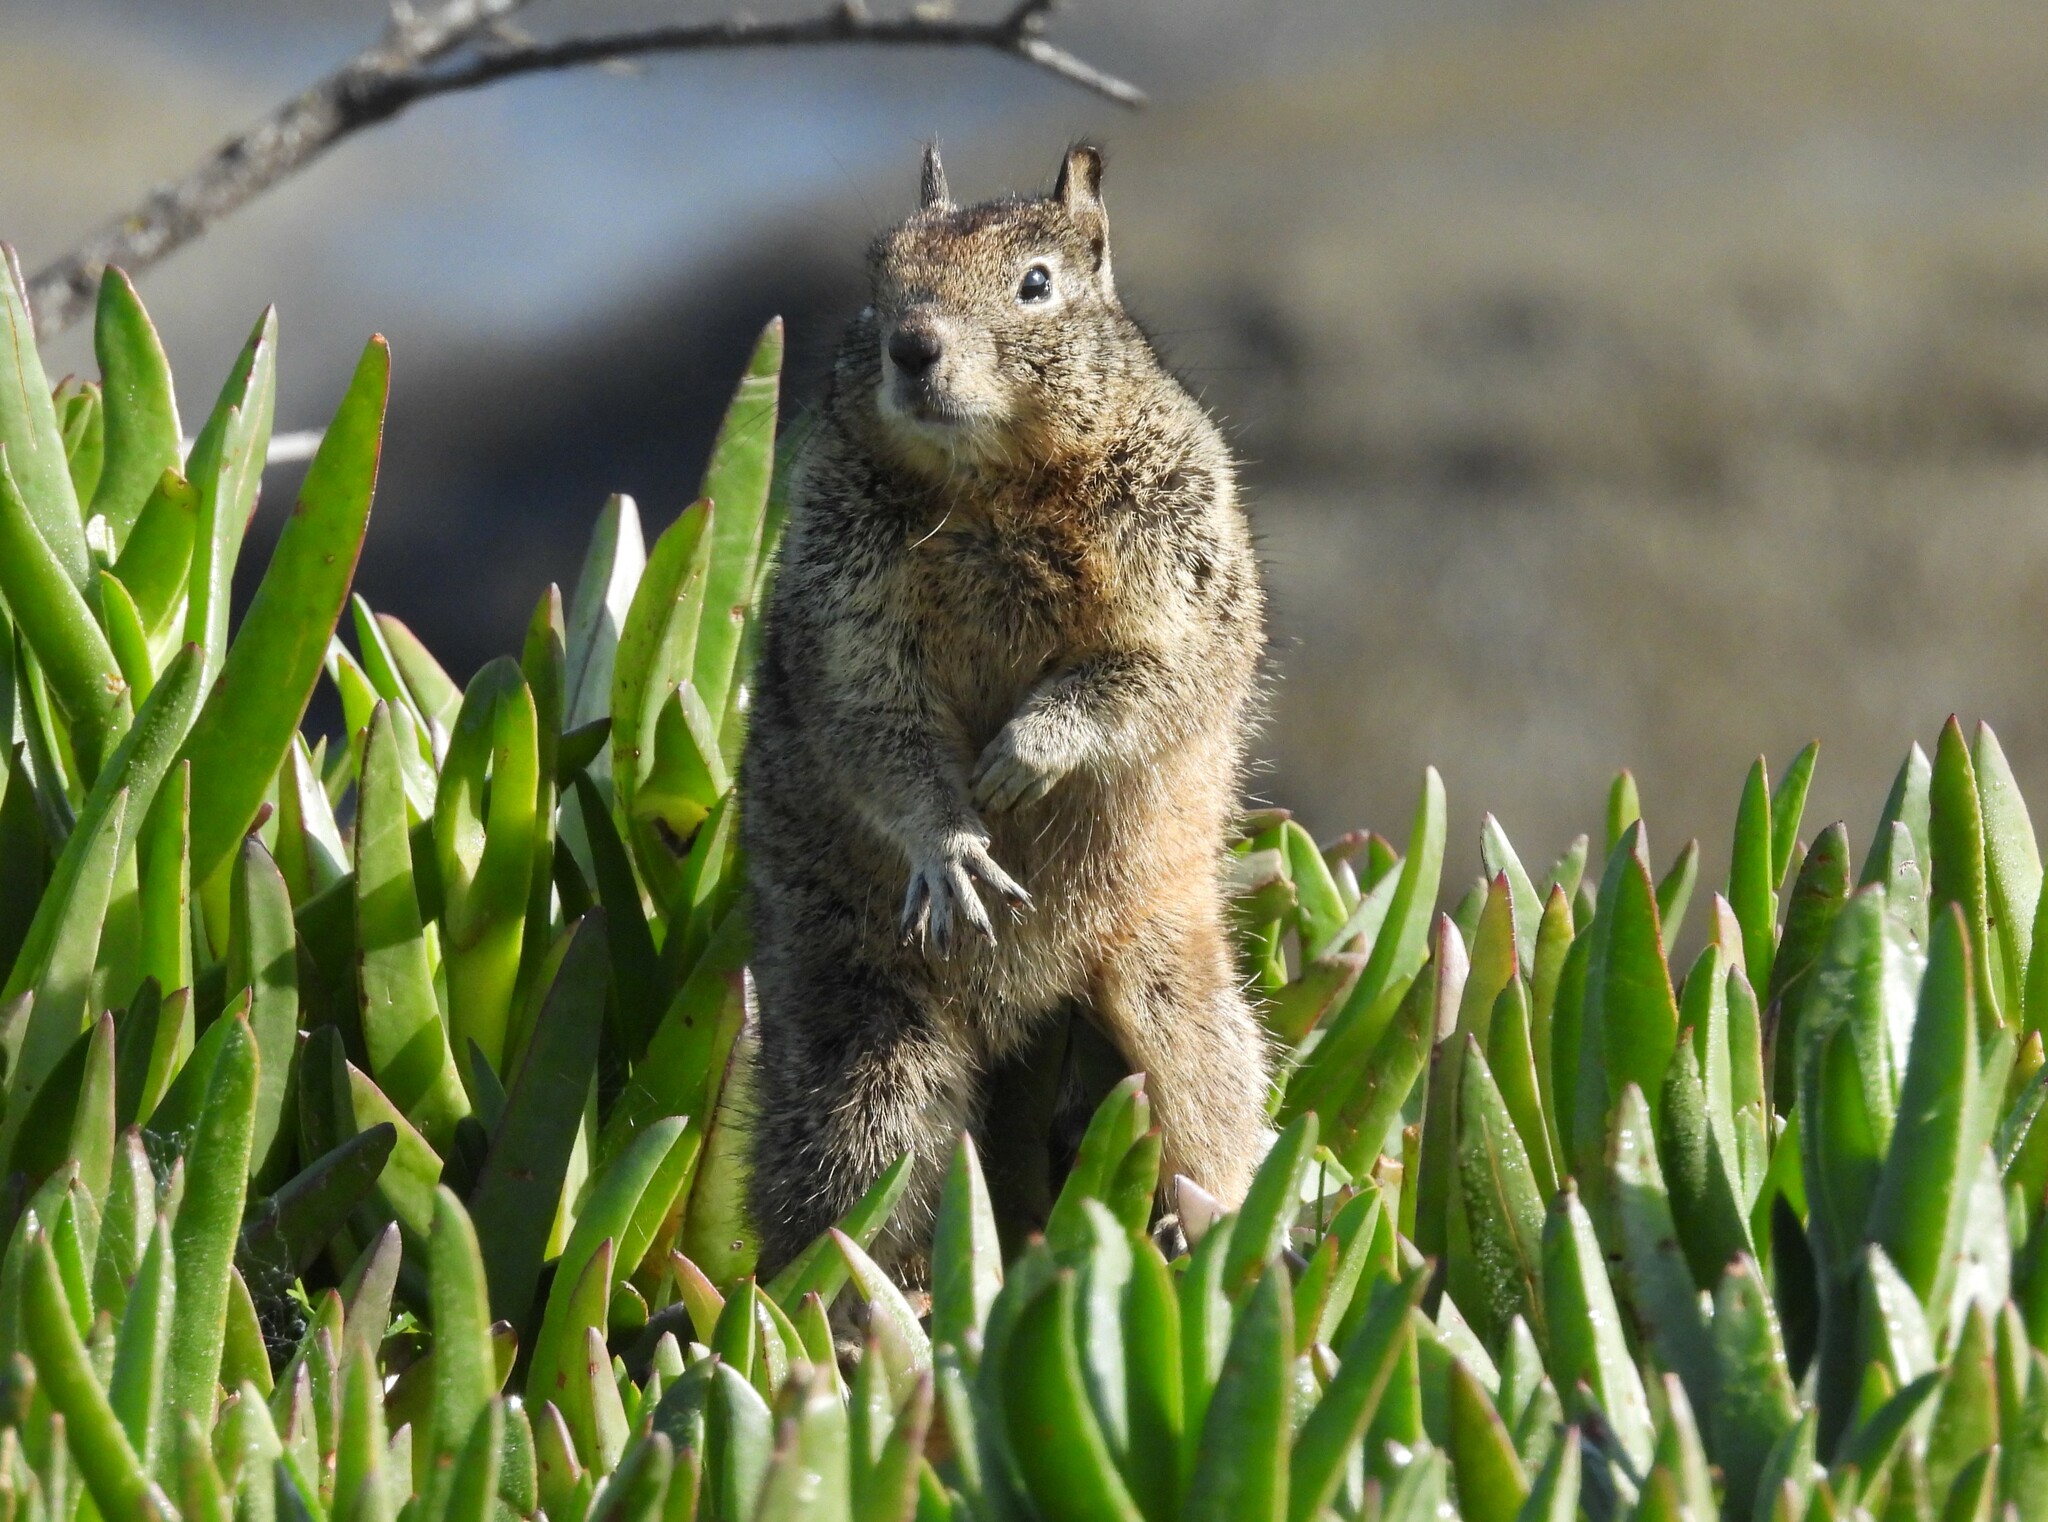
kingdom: Animalia
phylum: Chordata
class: Mammalia
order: Rodentia
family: Sciuridae
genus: Otospermophilus
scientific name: Otospermophilus beecheyi
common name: California ground squirrel
